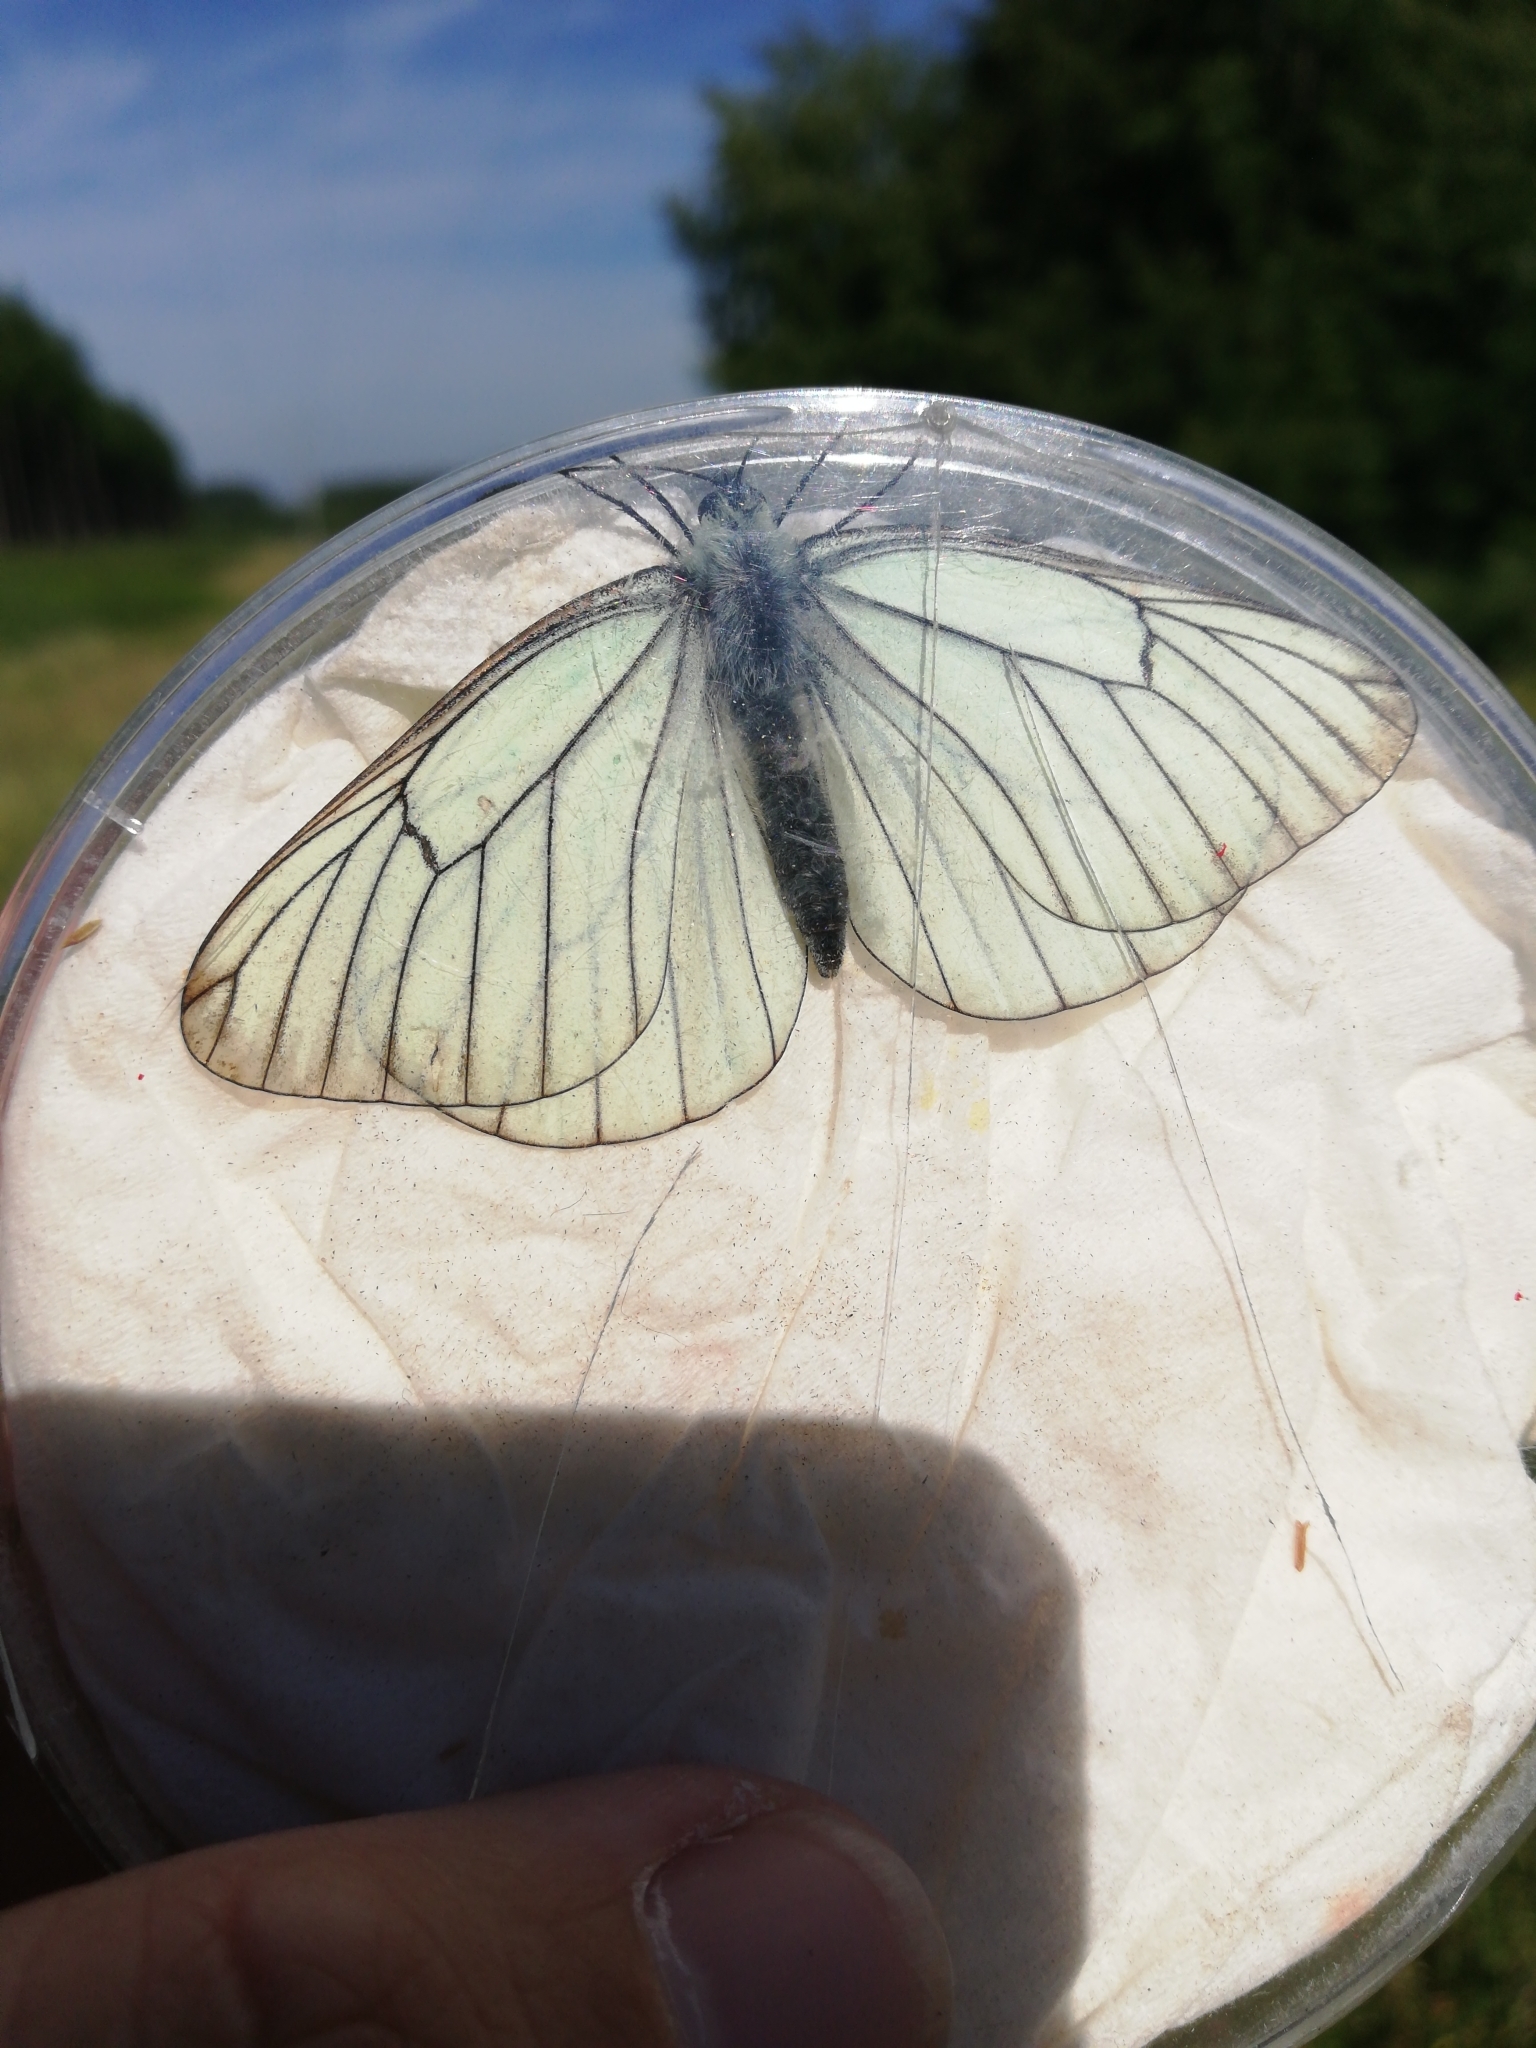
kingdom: Animalia
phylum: Arthropoda
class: Insecta
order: Lepidoptera
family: Pieridae
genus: Aporia
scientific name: Aporia crataegi
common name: Black-veined white
